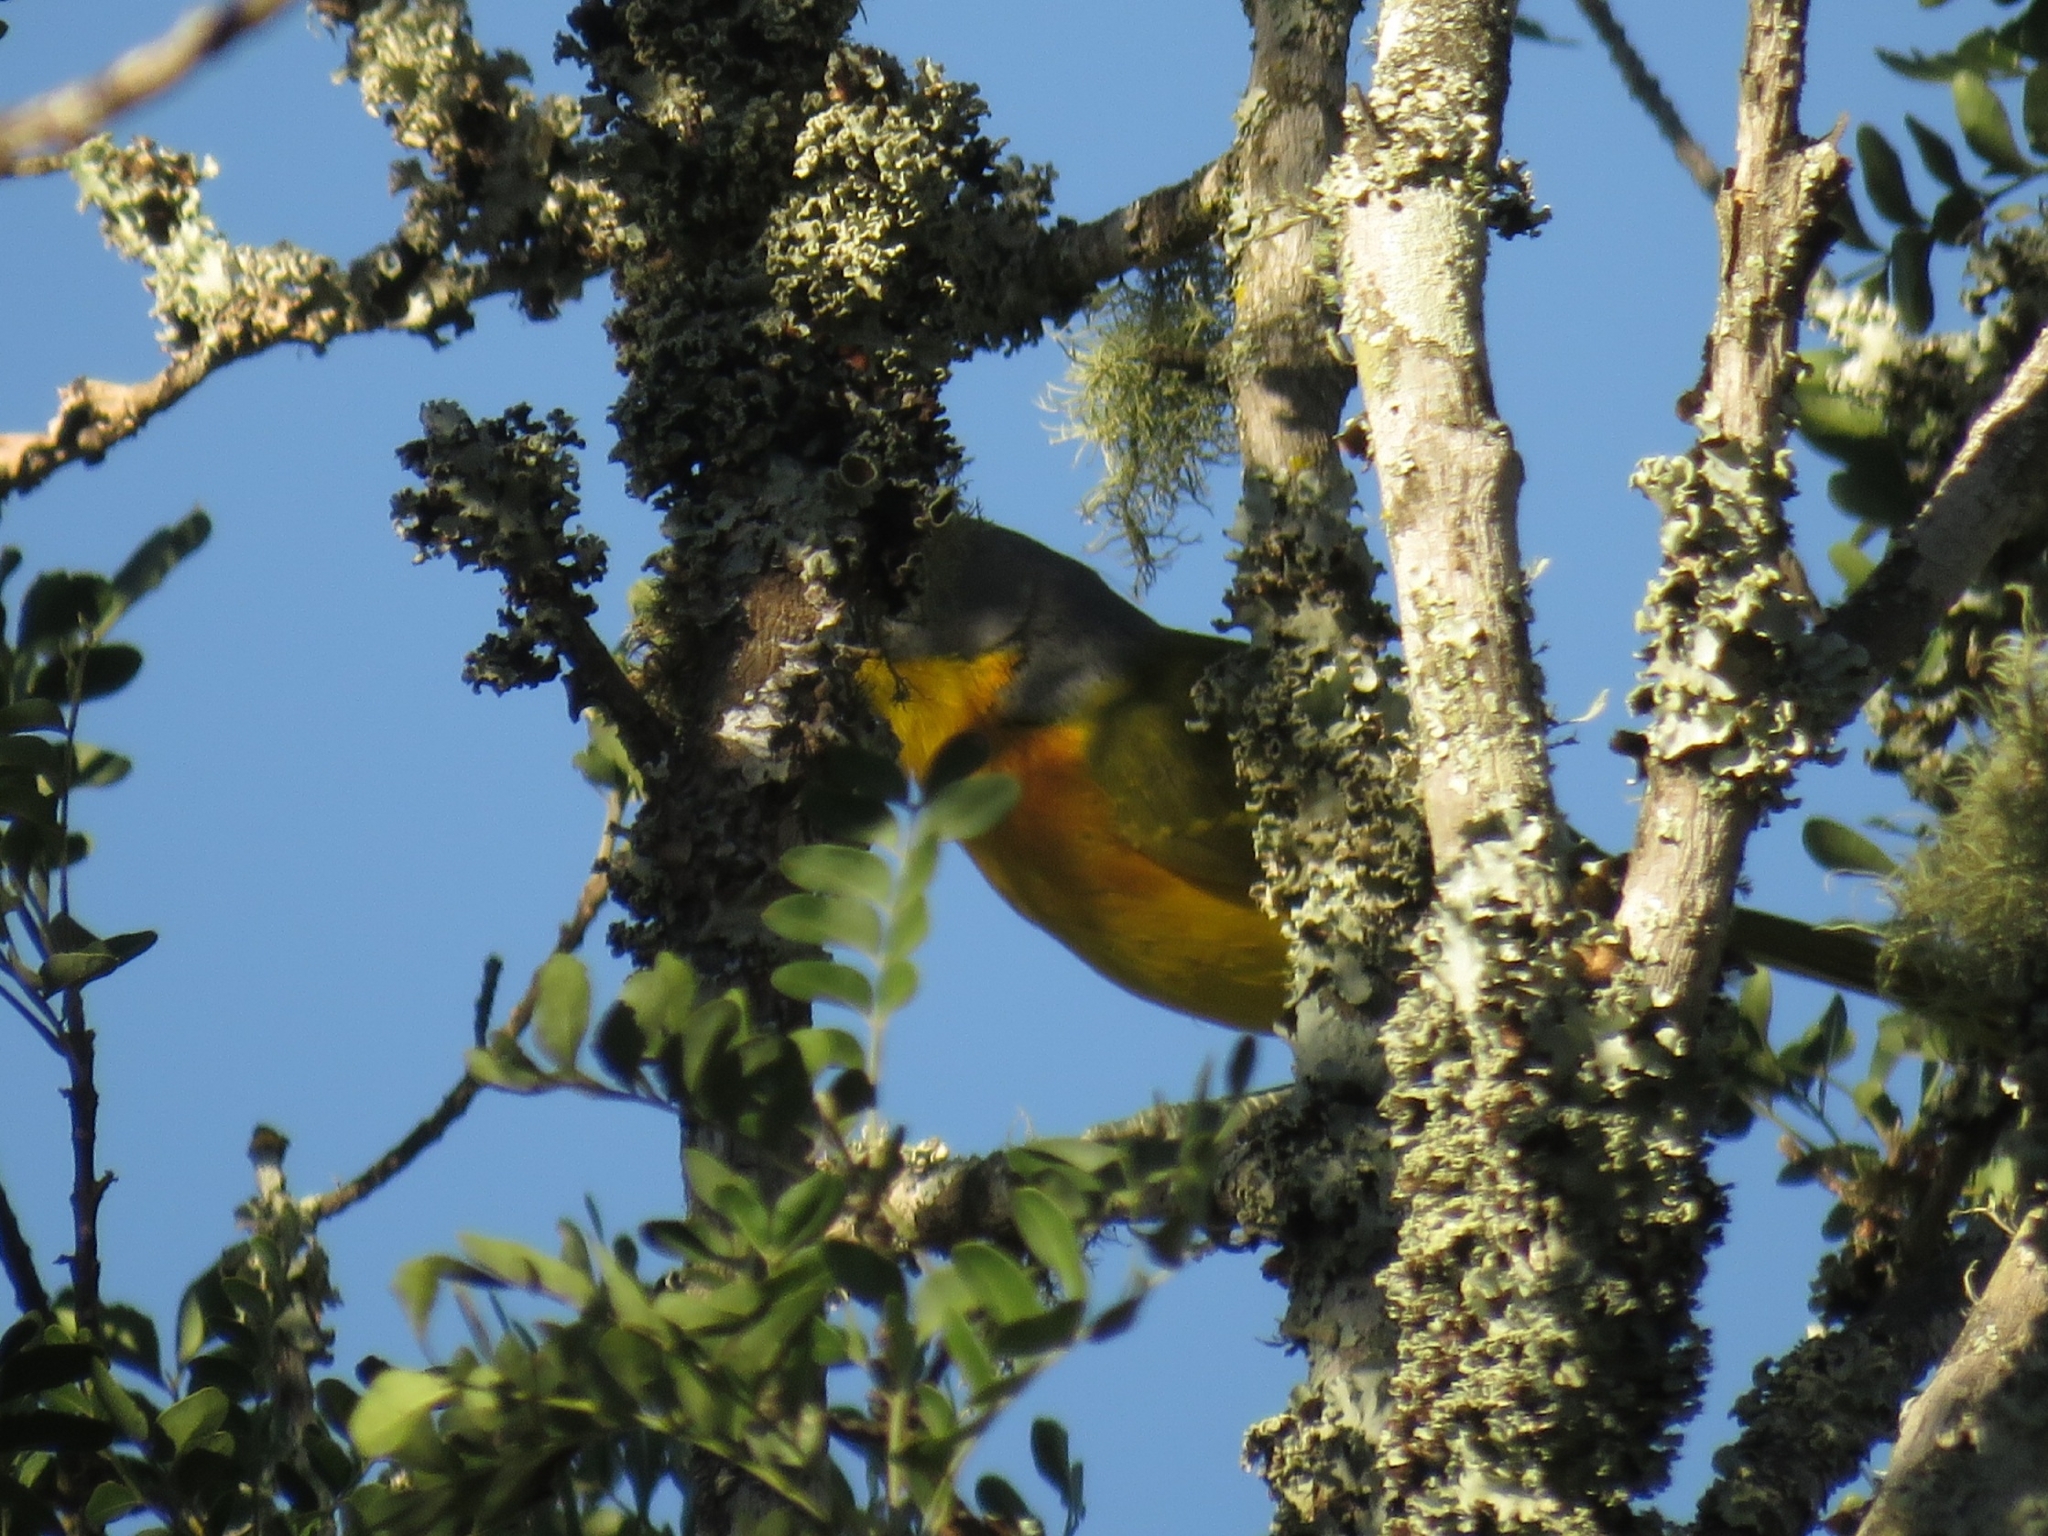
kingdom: Animalia
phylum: Chordata
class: Aves
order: Passeriformes
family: Malaconotidae
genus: Malaconotus
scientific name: Malaconotus blanchoti
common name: Grey-headed bushshrike
